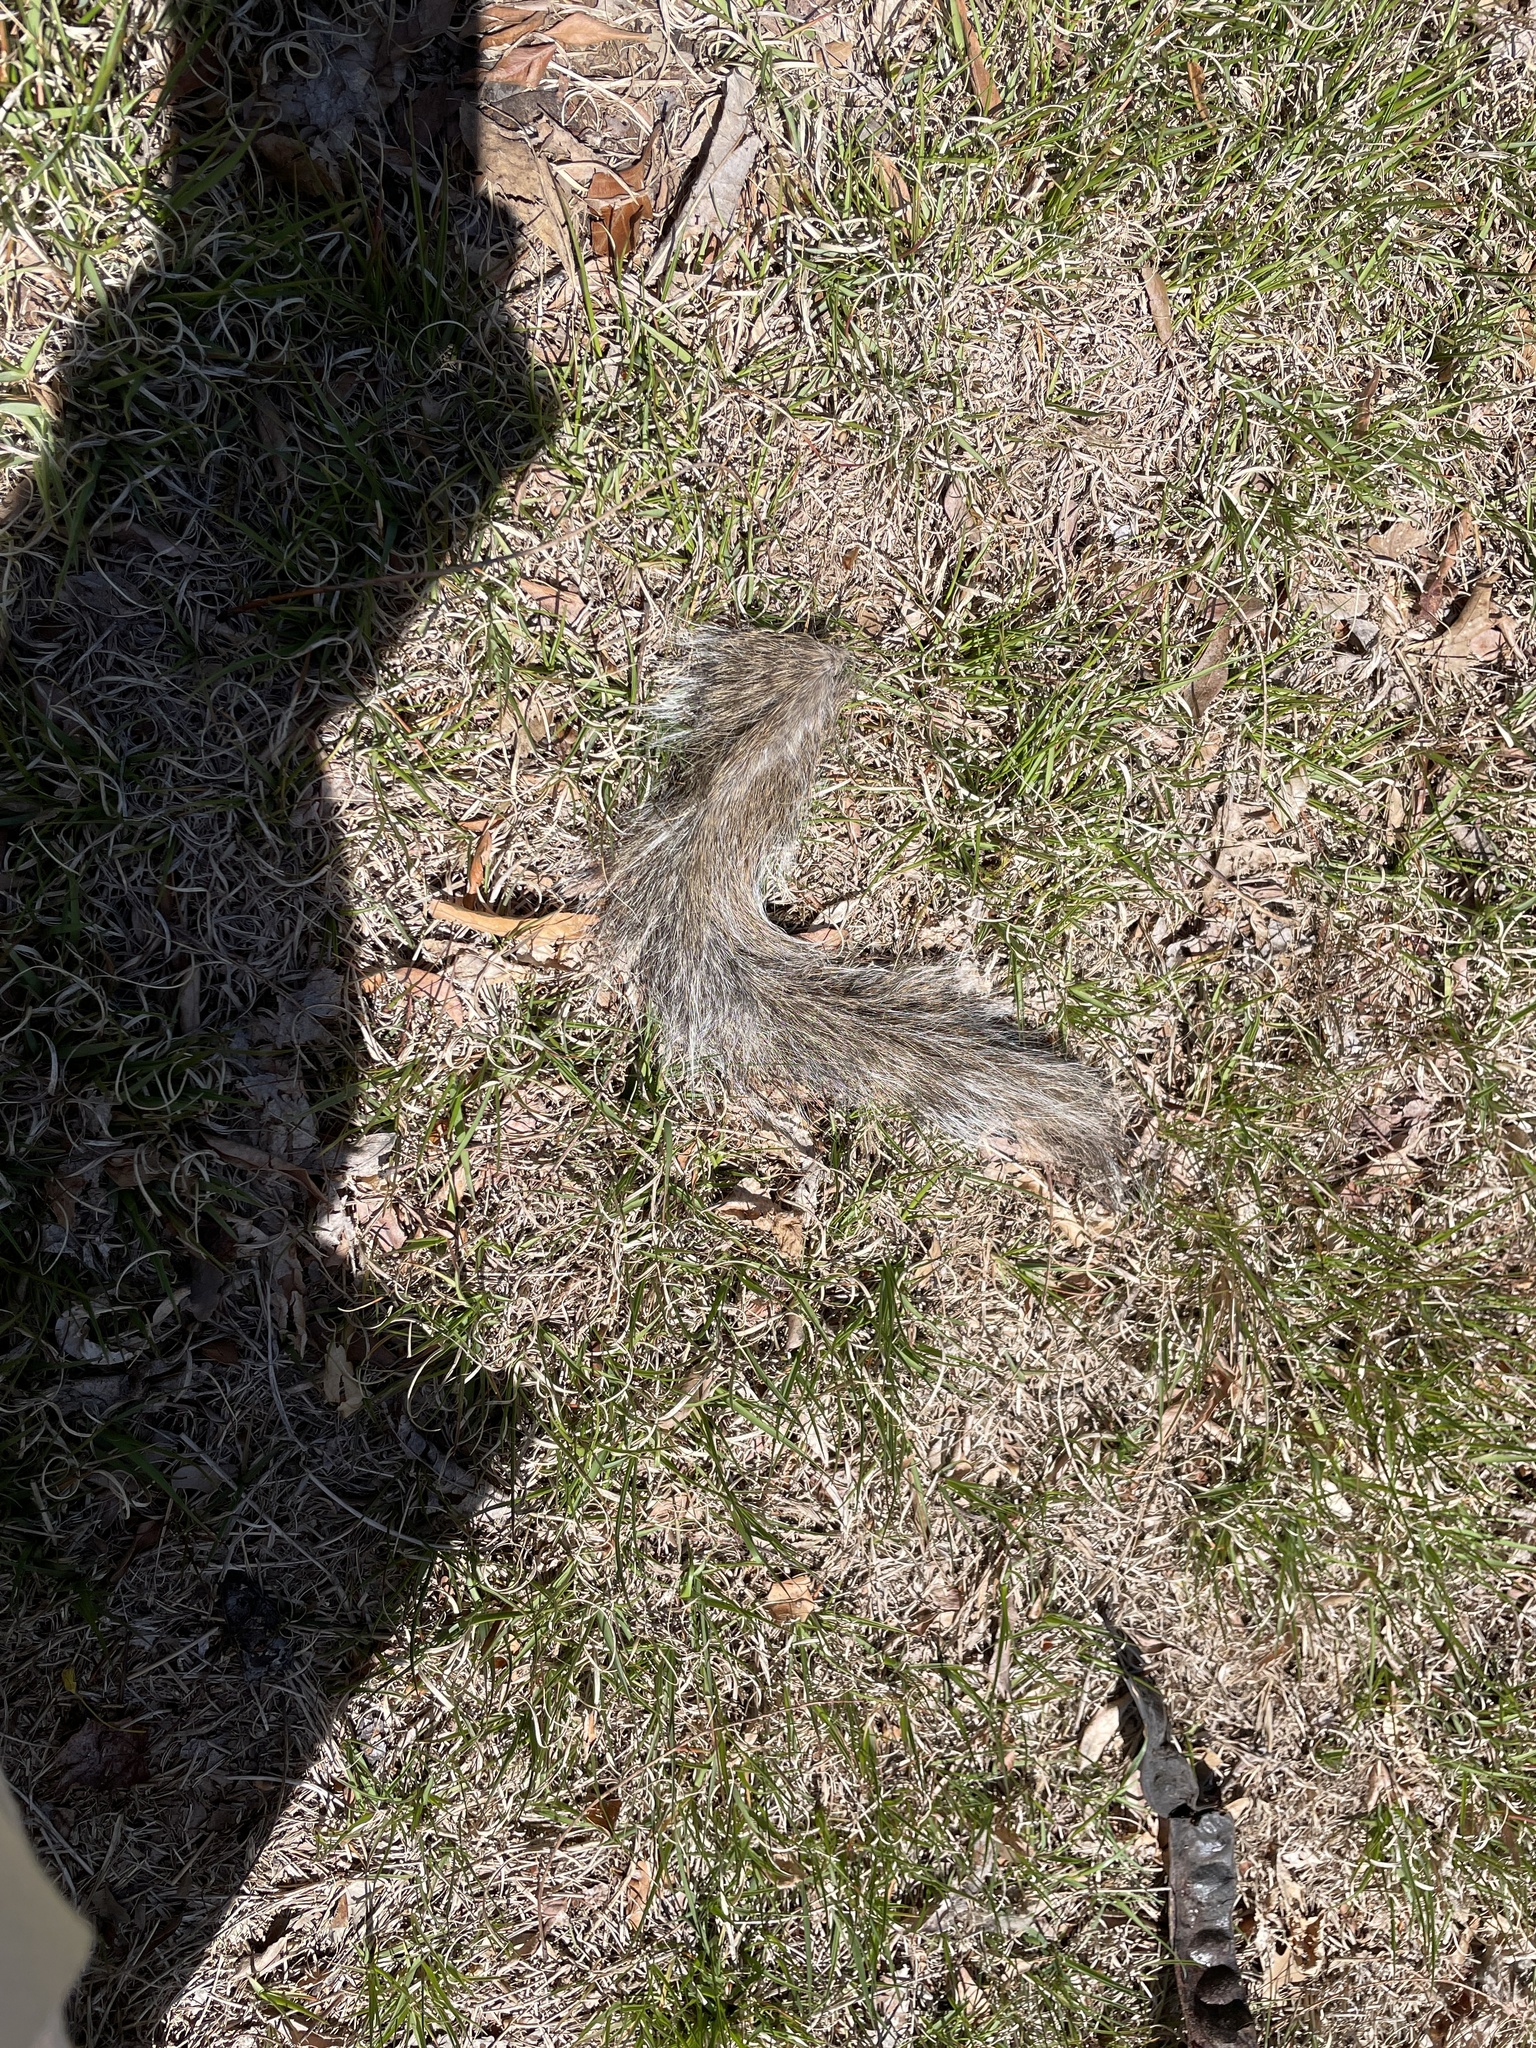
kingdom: Animalia
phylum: Chordata
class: Mammalia
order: Rodentia
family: Sciuridae
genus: Sciurus
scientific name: Sciurus carolinensis
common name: Eastern gray squirrel
